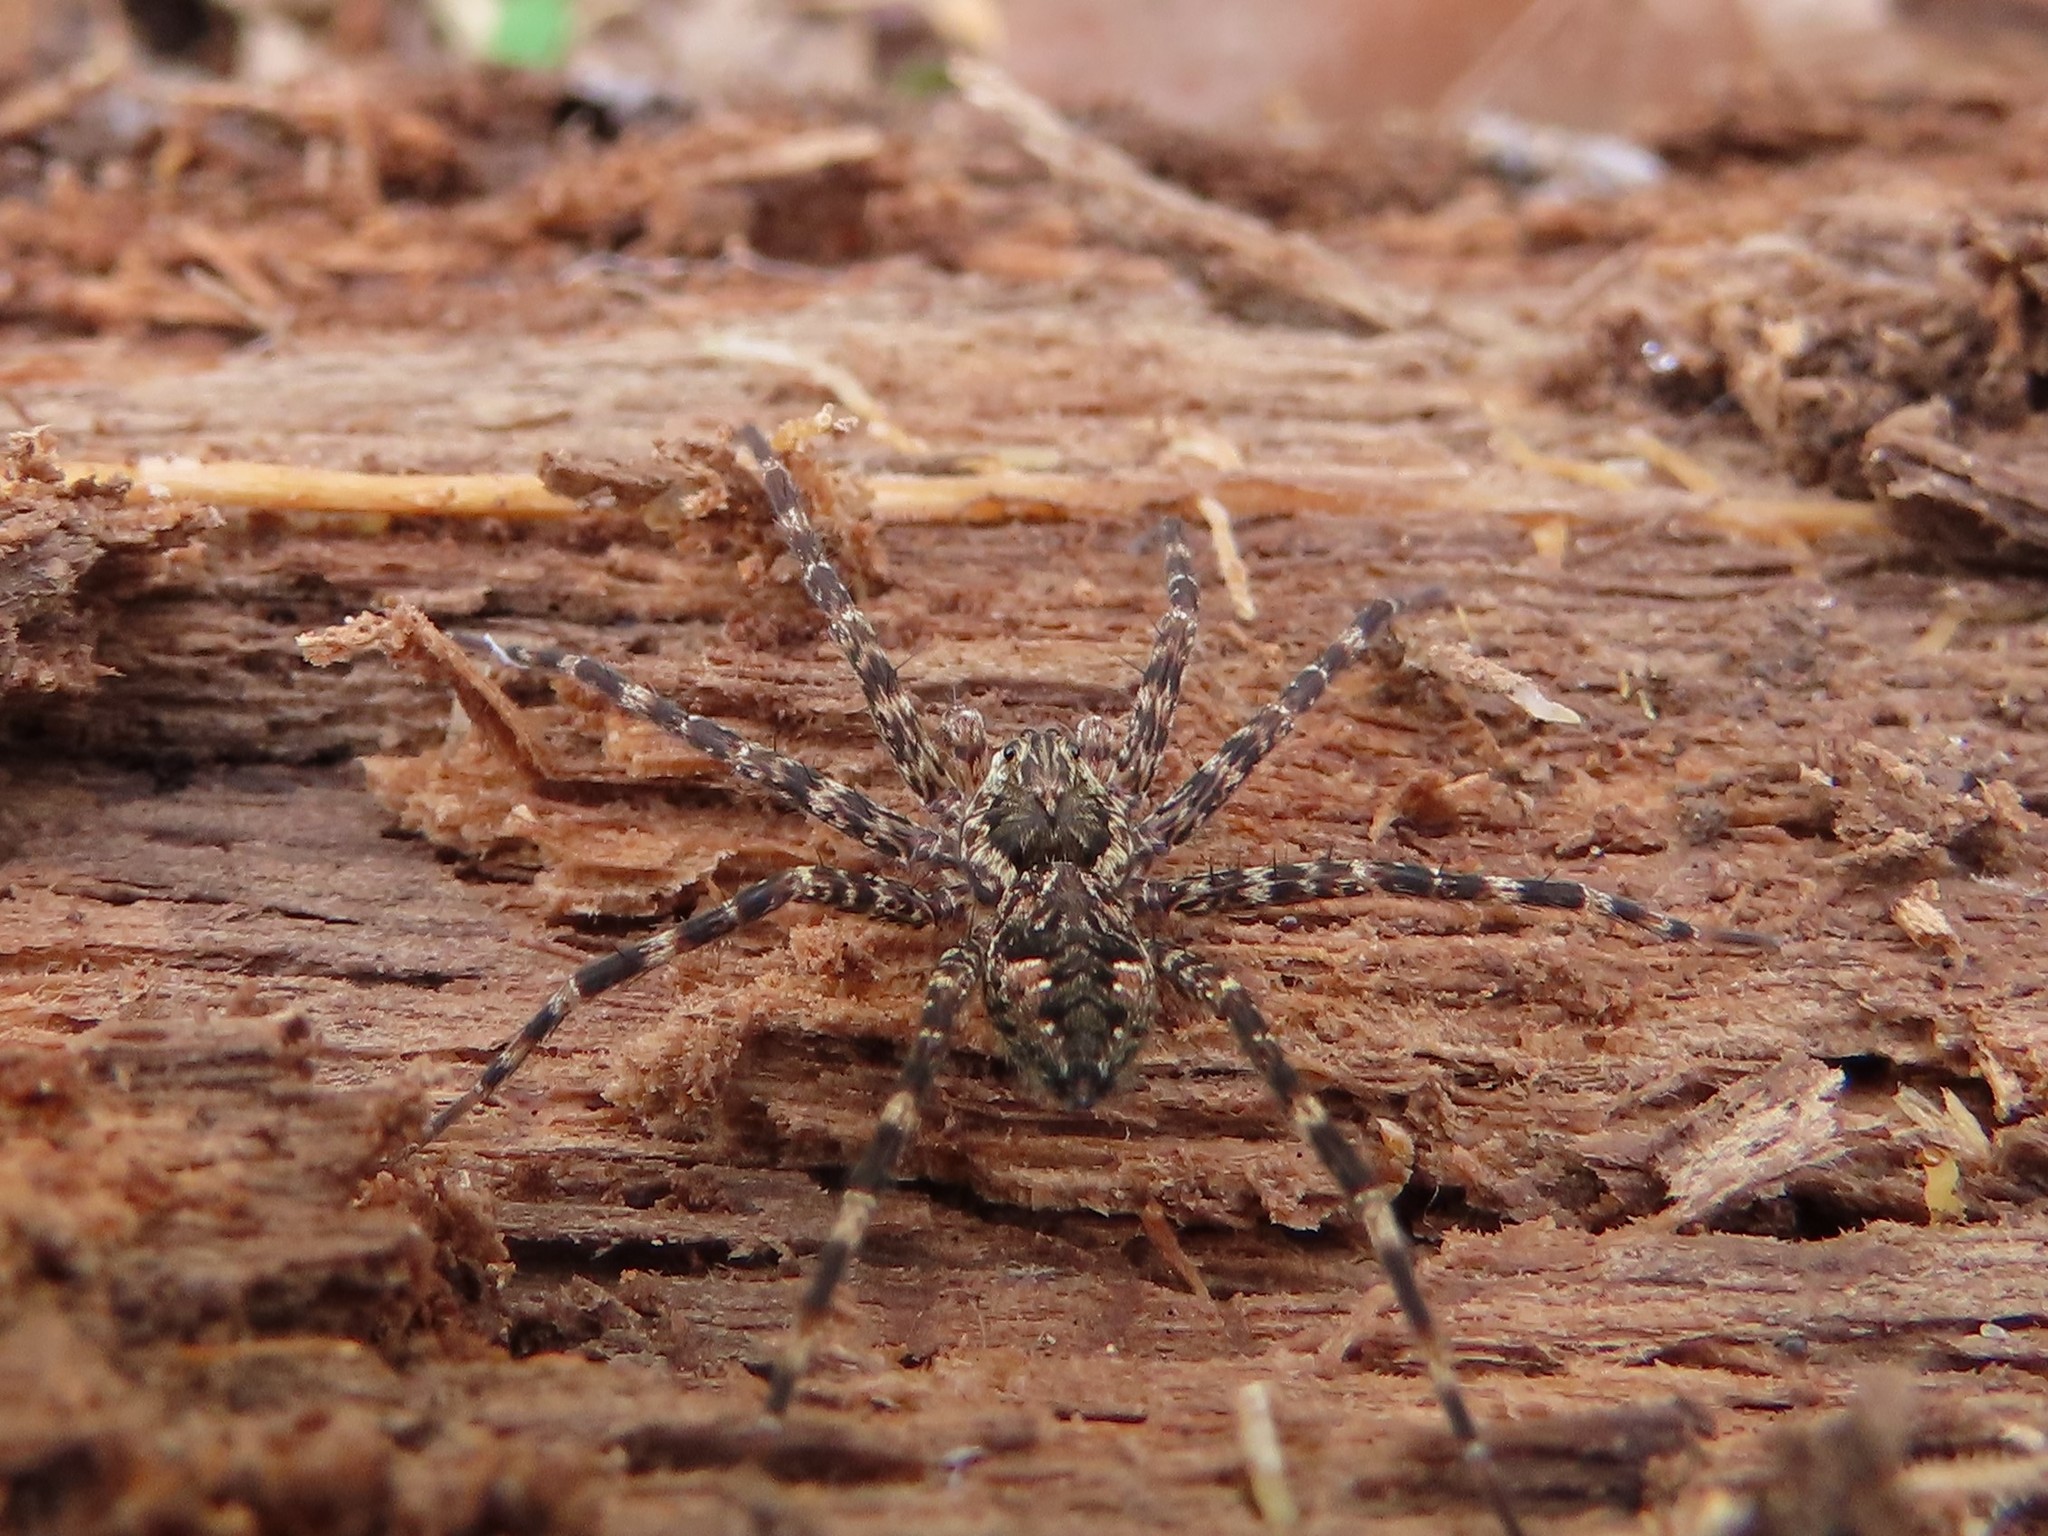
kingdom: Animalia
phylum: Arthropoda
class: Arachnida
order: Araneae
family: Pisauridae
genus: Dolomedes
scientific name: Dolomedes tenebrosus
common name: Dark fishing spider
